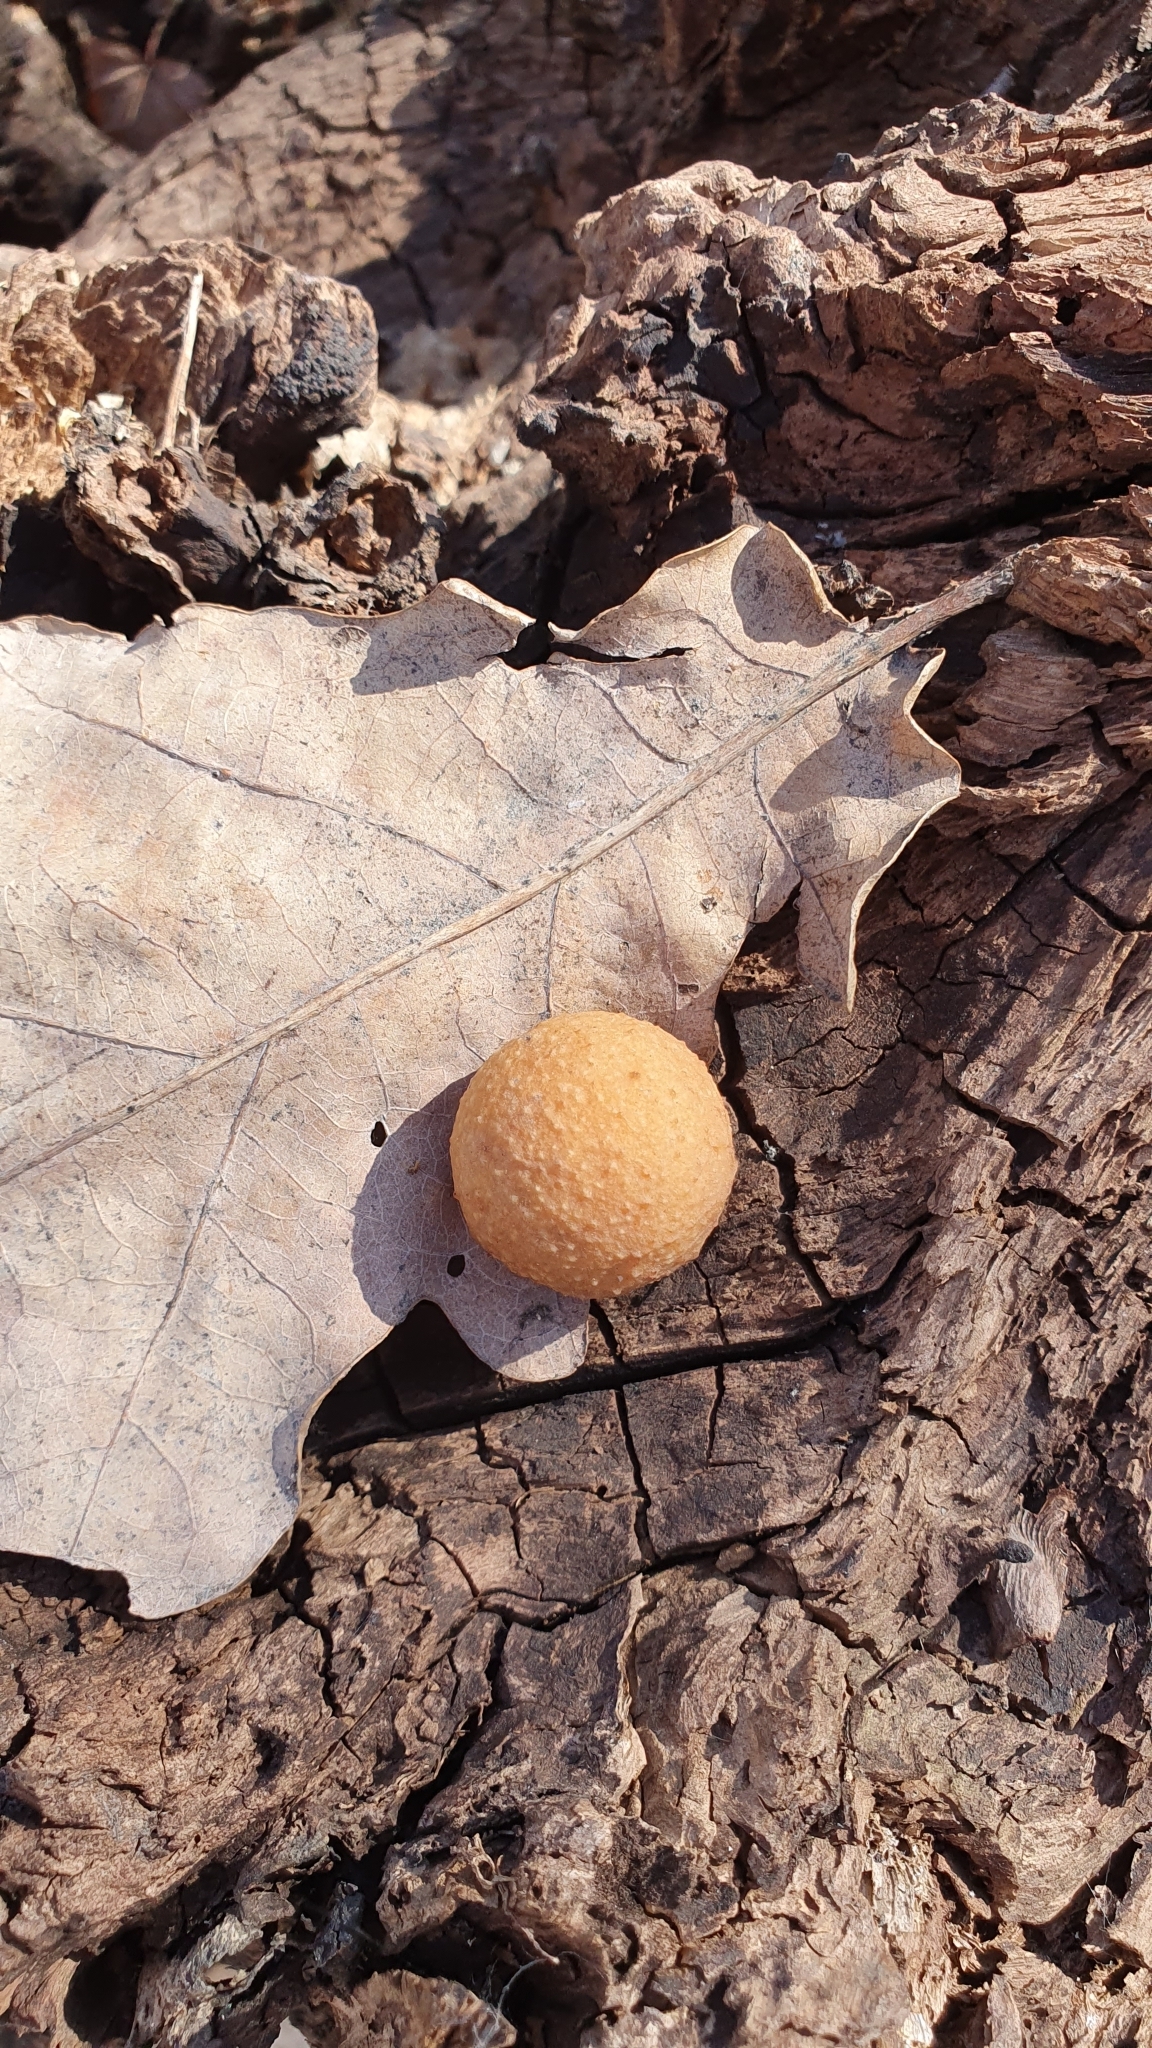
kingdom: Animalia
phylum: Arthropoda
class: Insecta
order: Hymenoptera
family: Cynipidae
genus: Cynips
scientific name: Cynips quercusfolii
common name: Cherry gall
